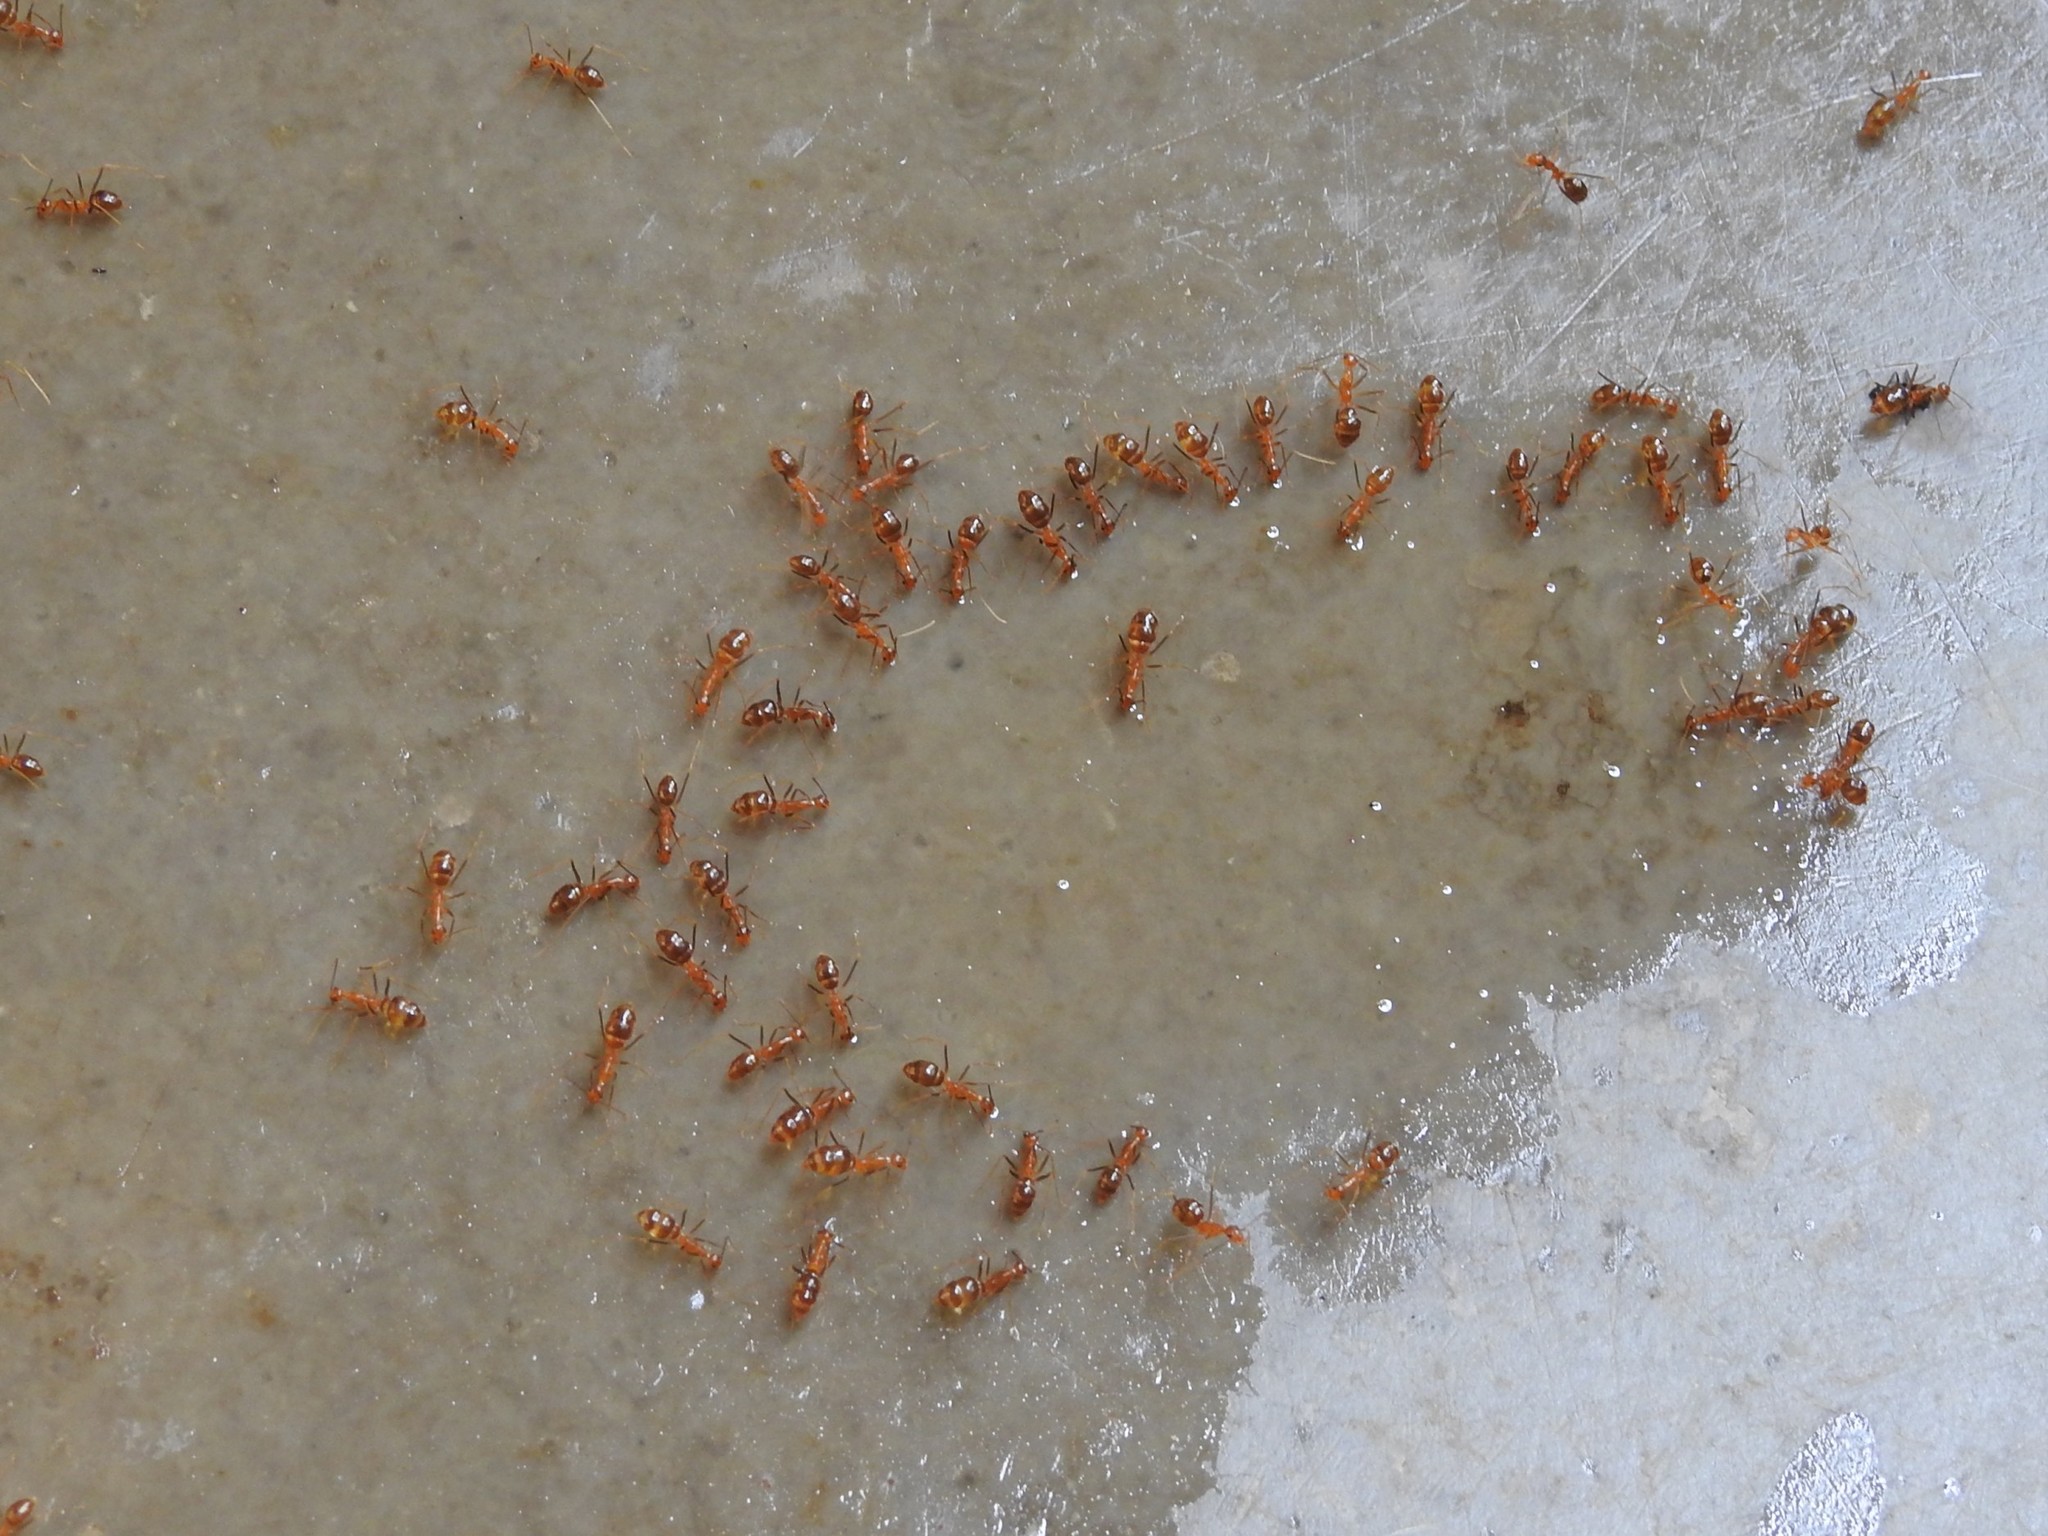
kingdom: Animalia
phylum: Arthropoda
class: Insecta
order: Hymenoptera
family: Formicidae
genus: Anoplolepis
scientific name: Anoplolepis gracilipes
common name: Ant
